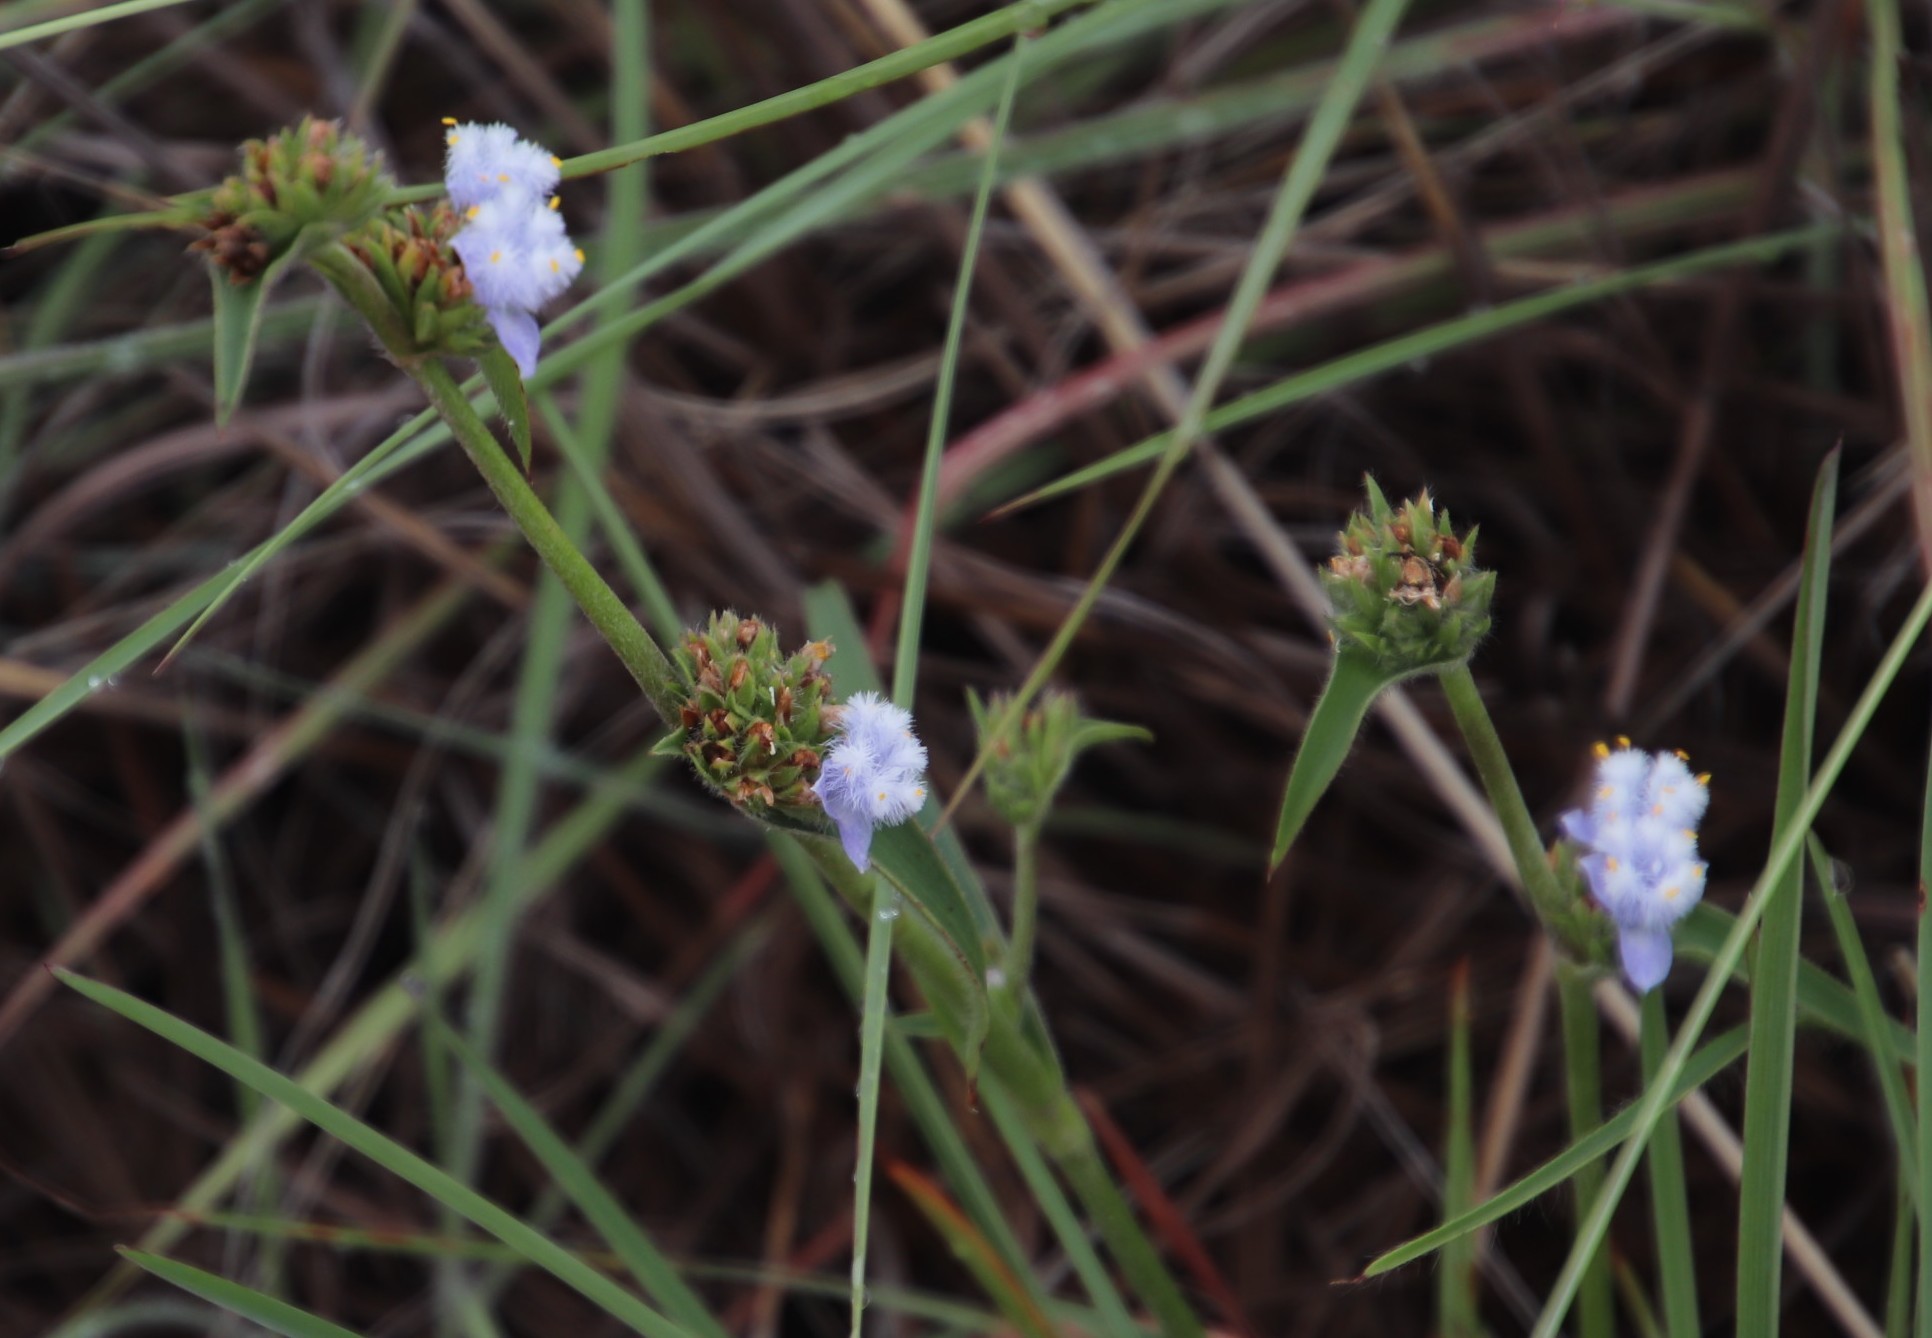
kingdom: Plantae
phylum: Tracheophyta
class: Liliopsida
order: Commelinales
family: Commelinaceae
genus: Cyanotis
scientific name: Cyanotis speciosa
